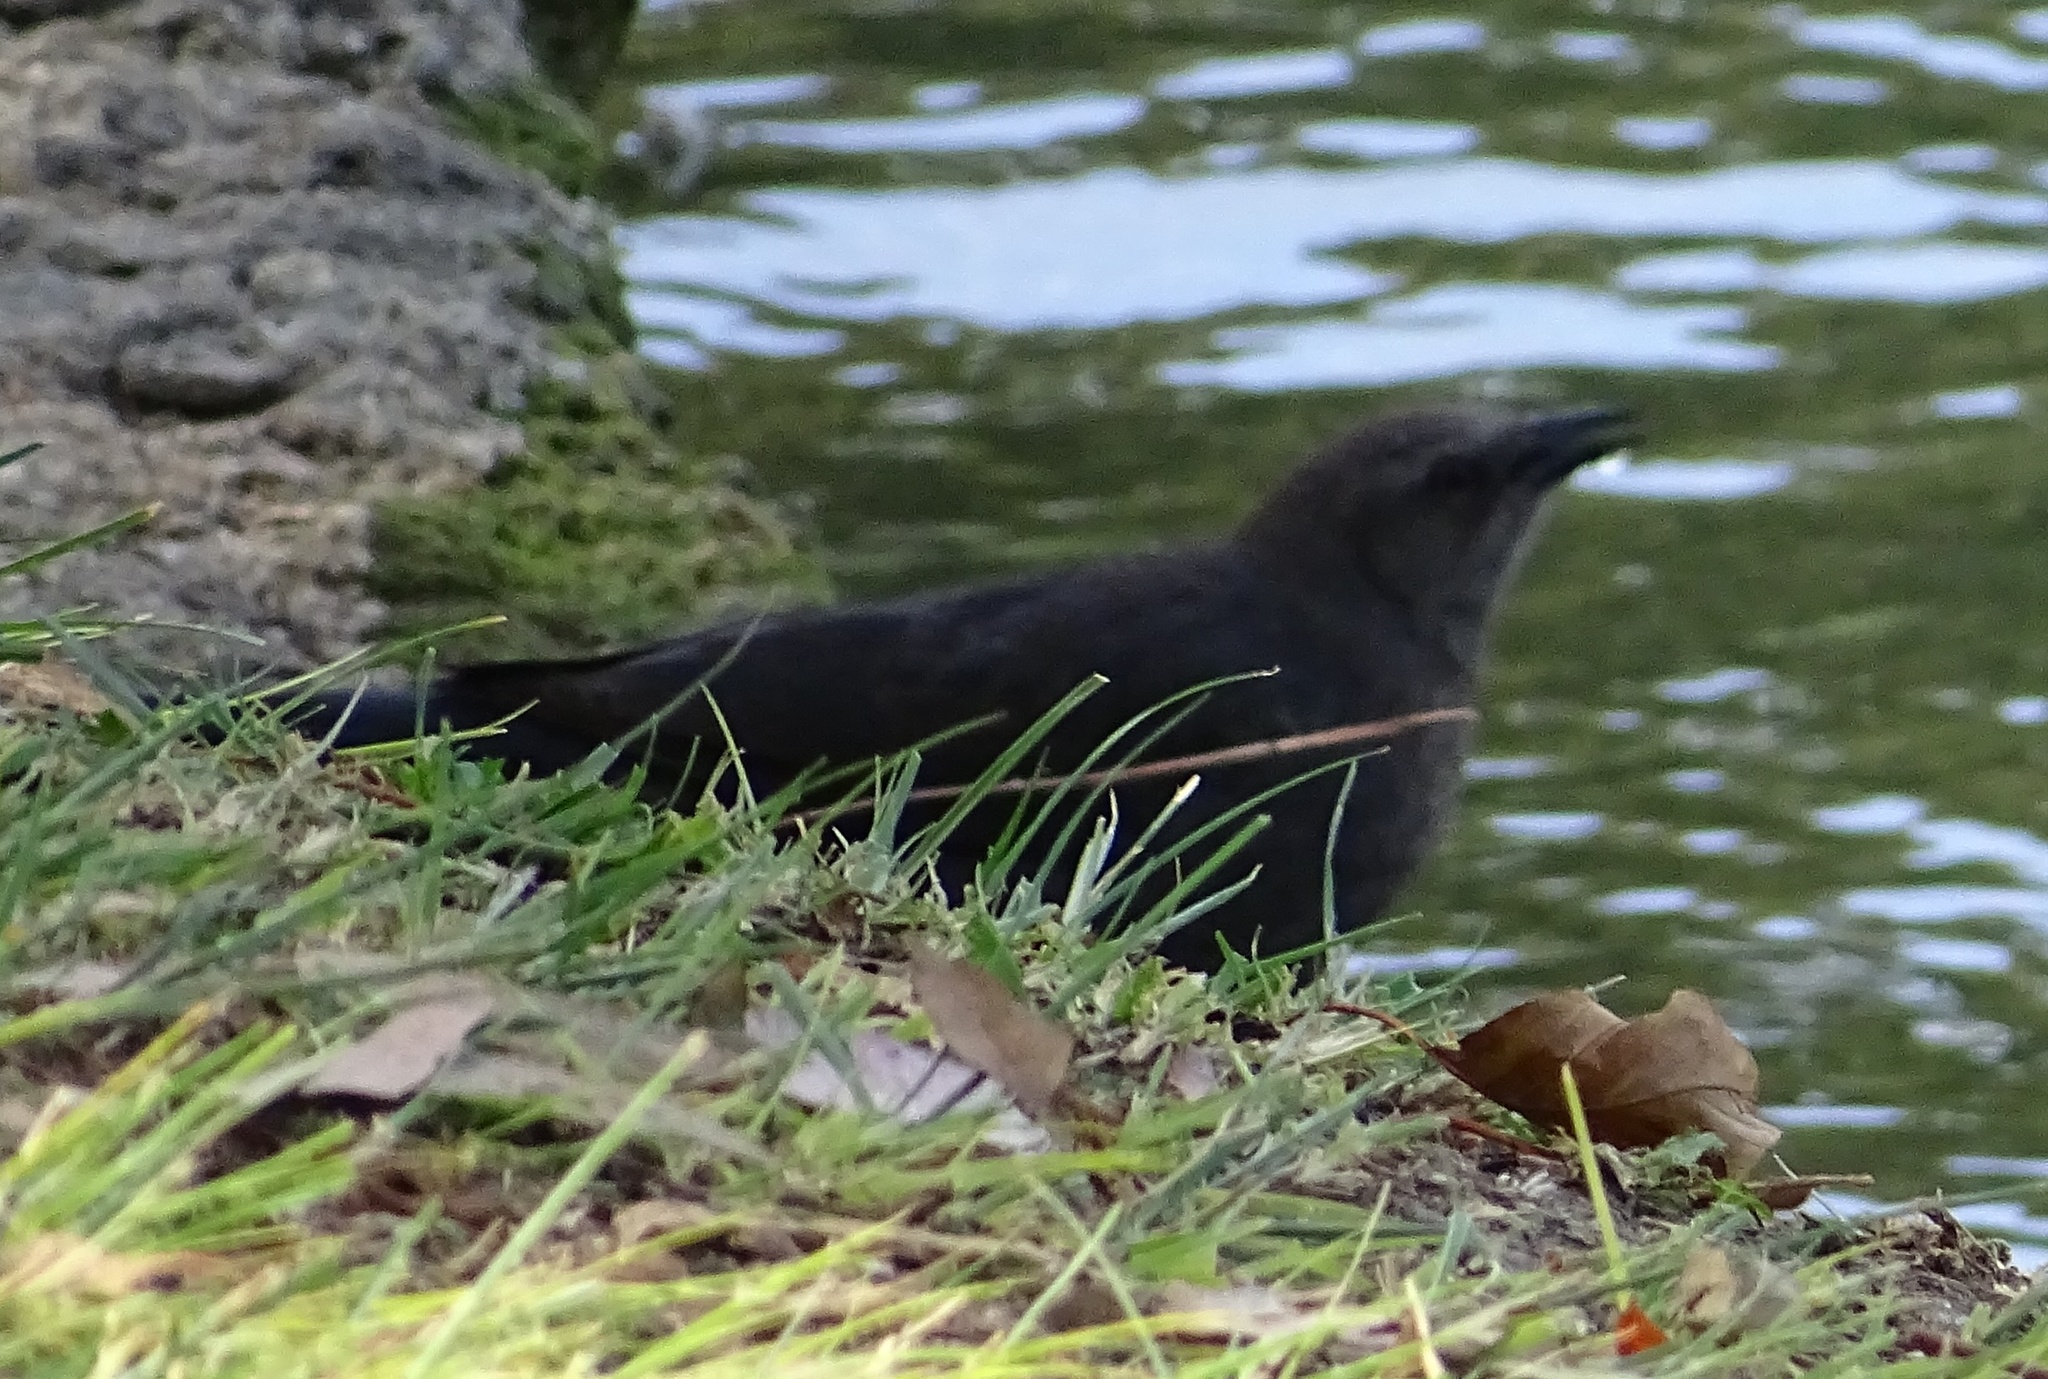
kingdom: Animalia
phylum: Chordata
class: Aves
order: Passeriformes
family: Icteridae
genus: Euphagus
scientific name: Euphagus cyanocephalus
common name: Brewer's blackbird
